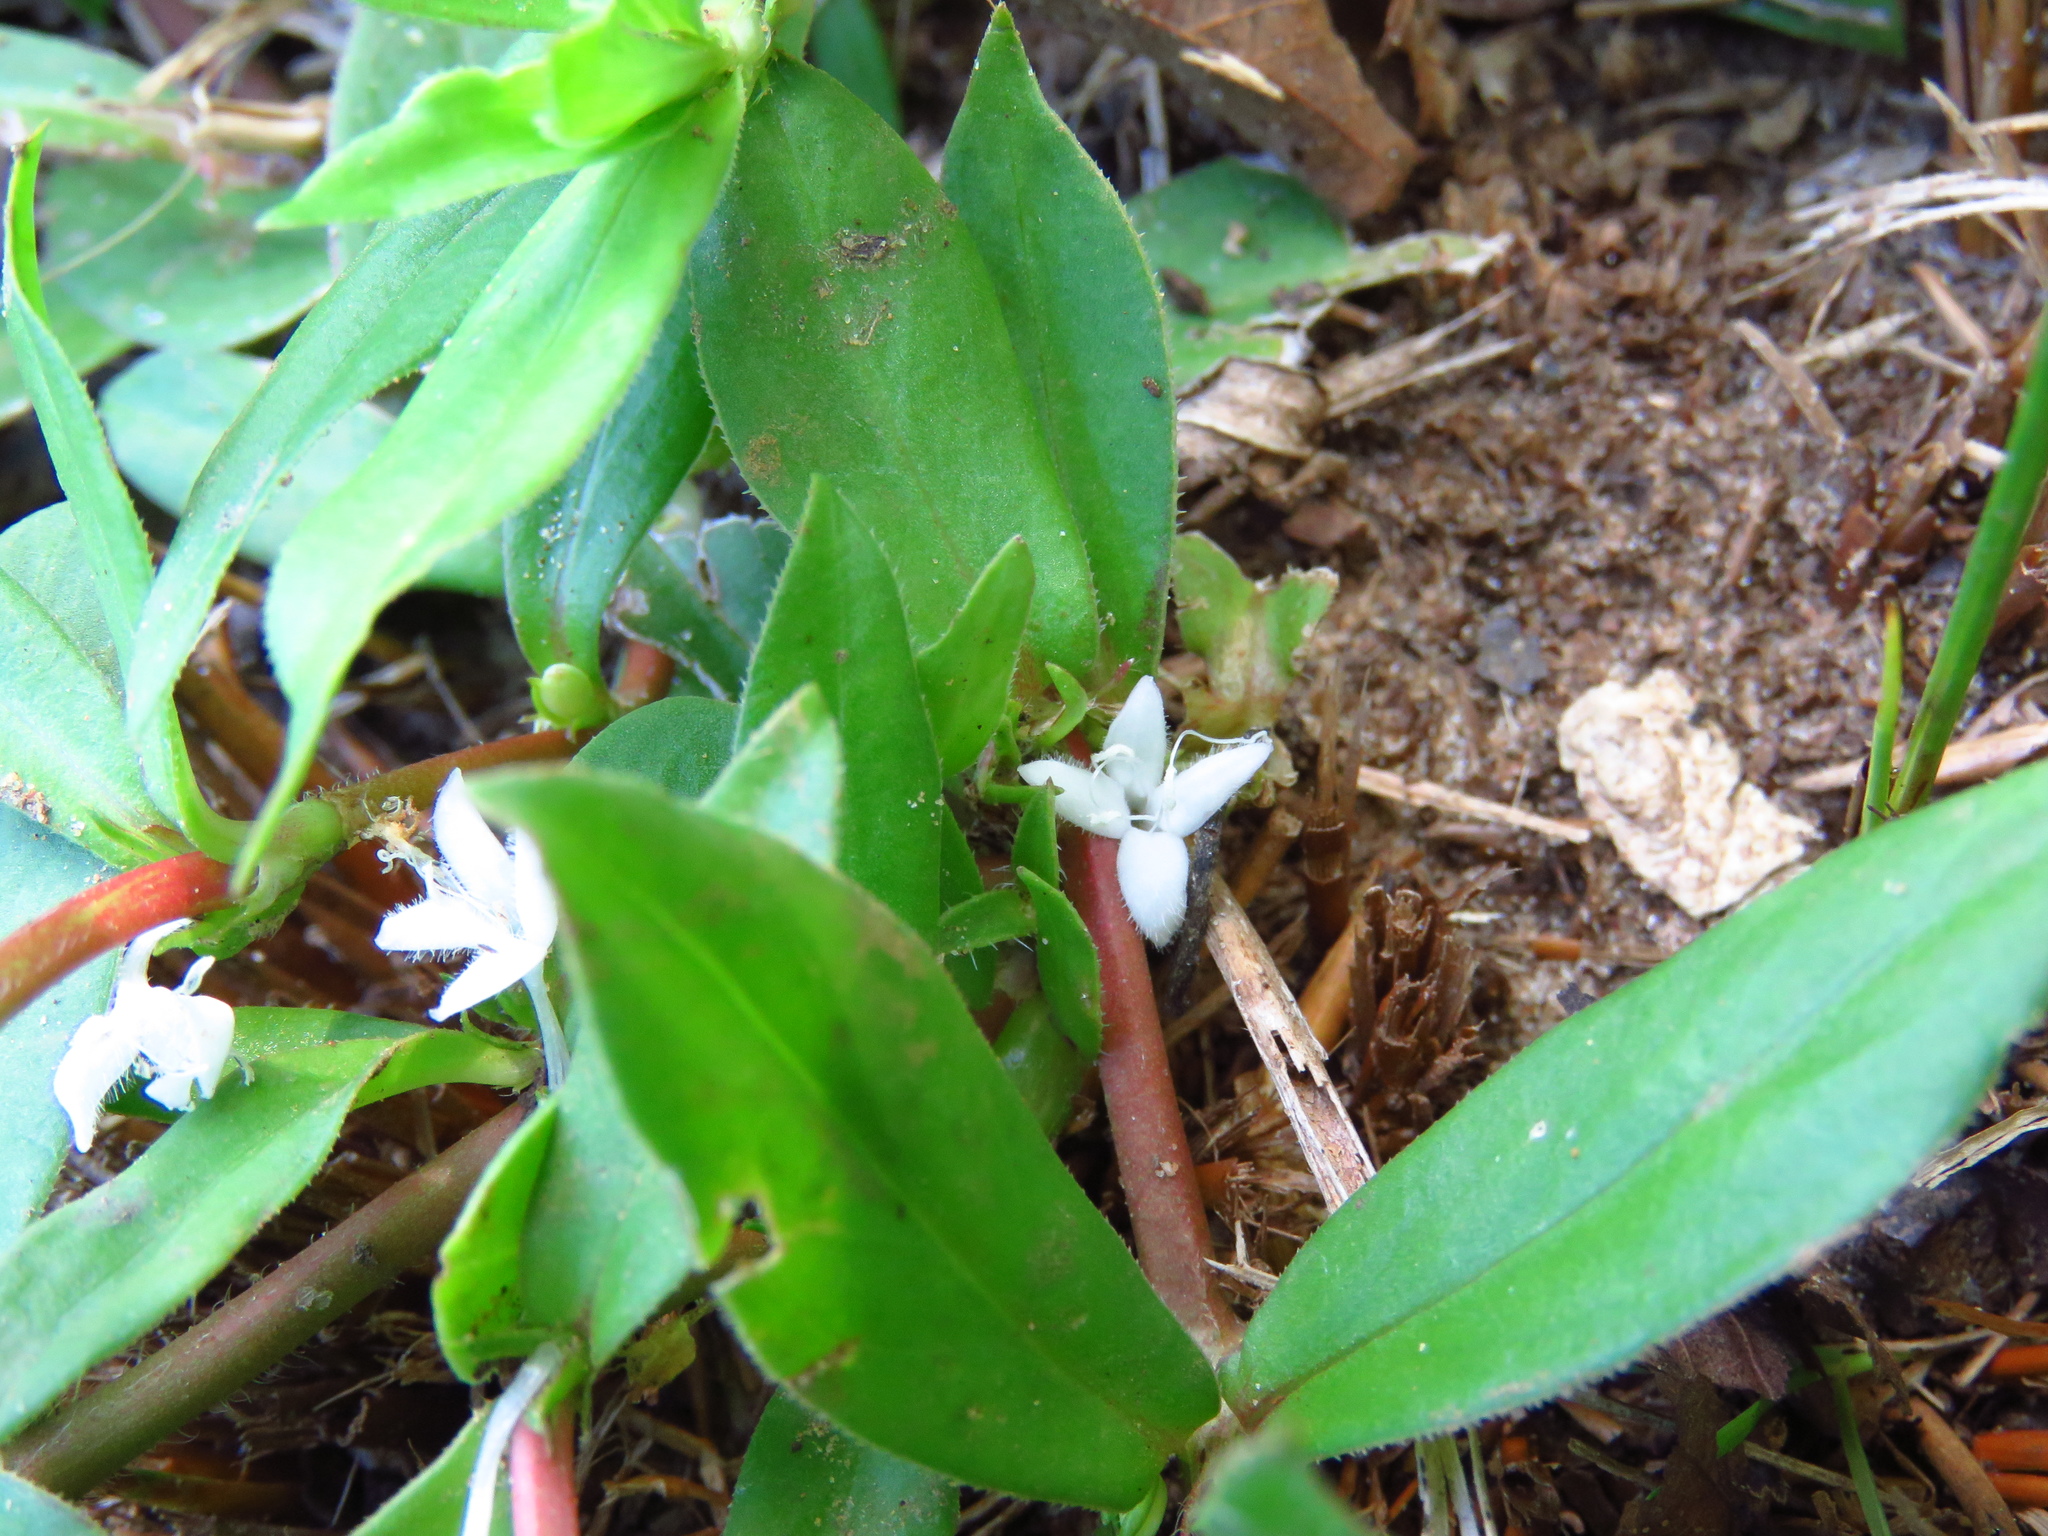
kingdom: Plantae
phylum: Tracheophyta
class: Magnoliopsida
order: Gentianales
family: Rubiaceae
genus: Diodia
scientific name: Diodia virginiana
